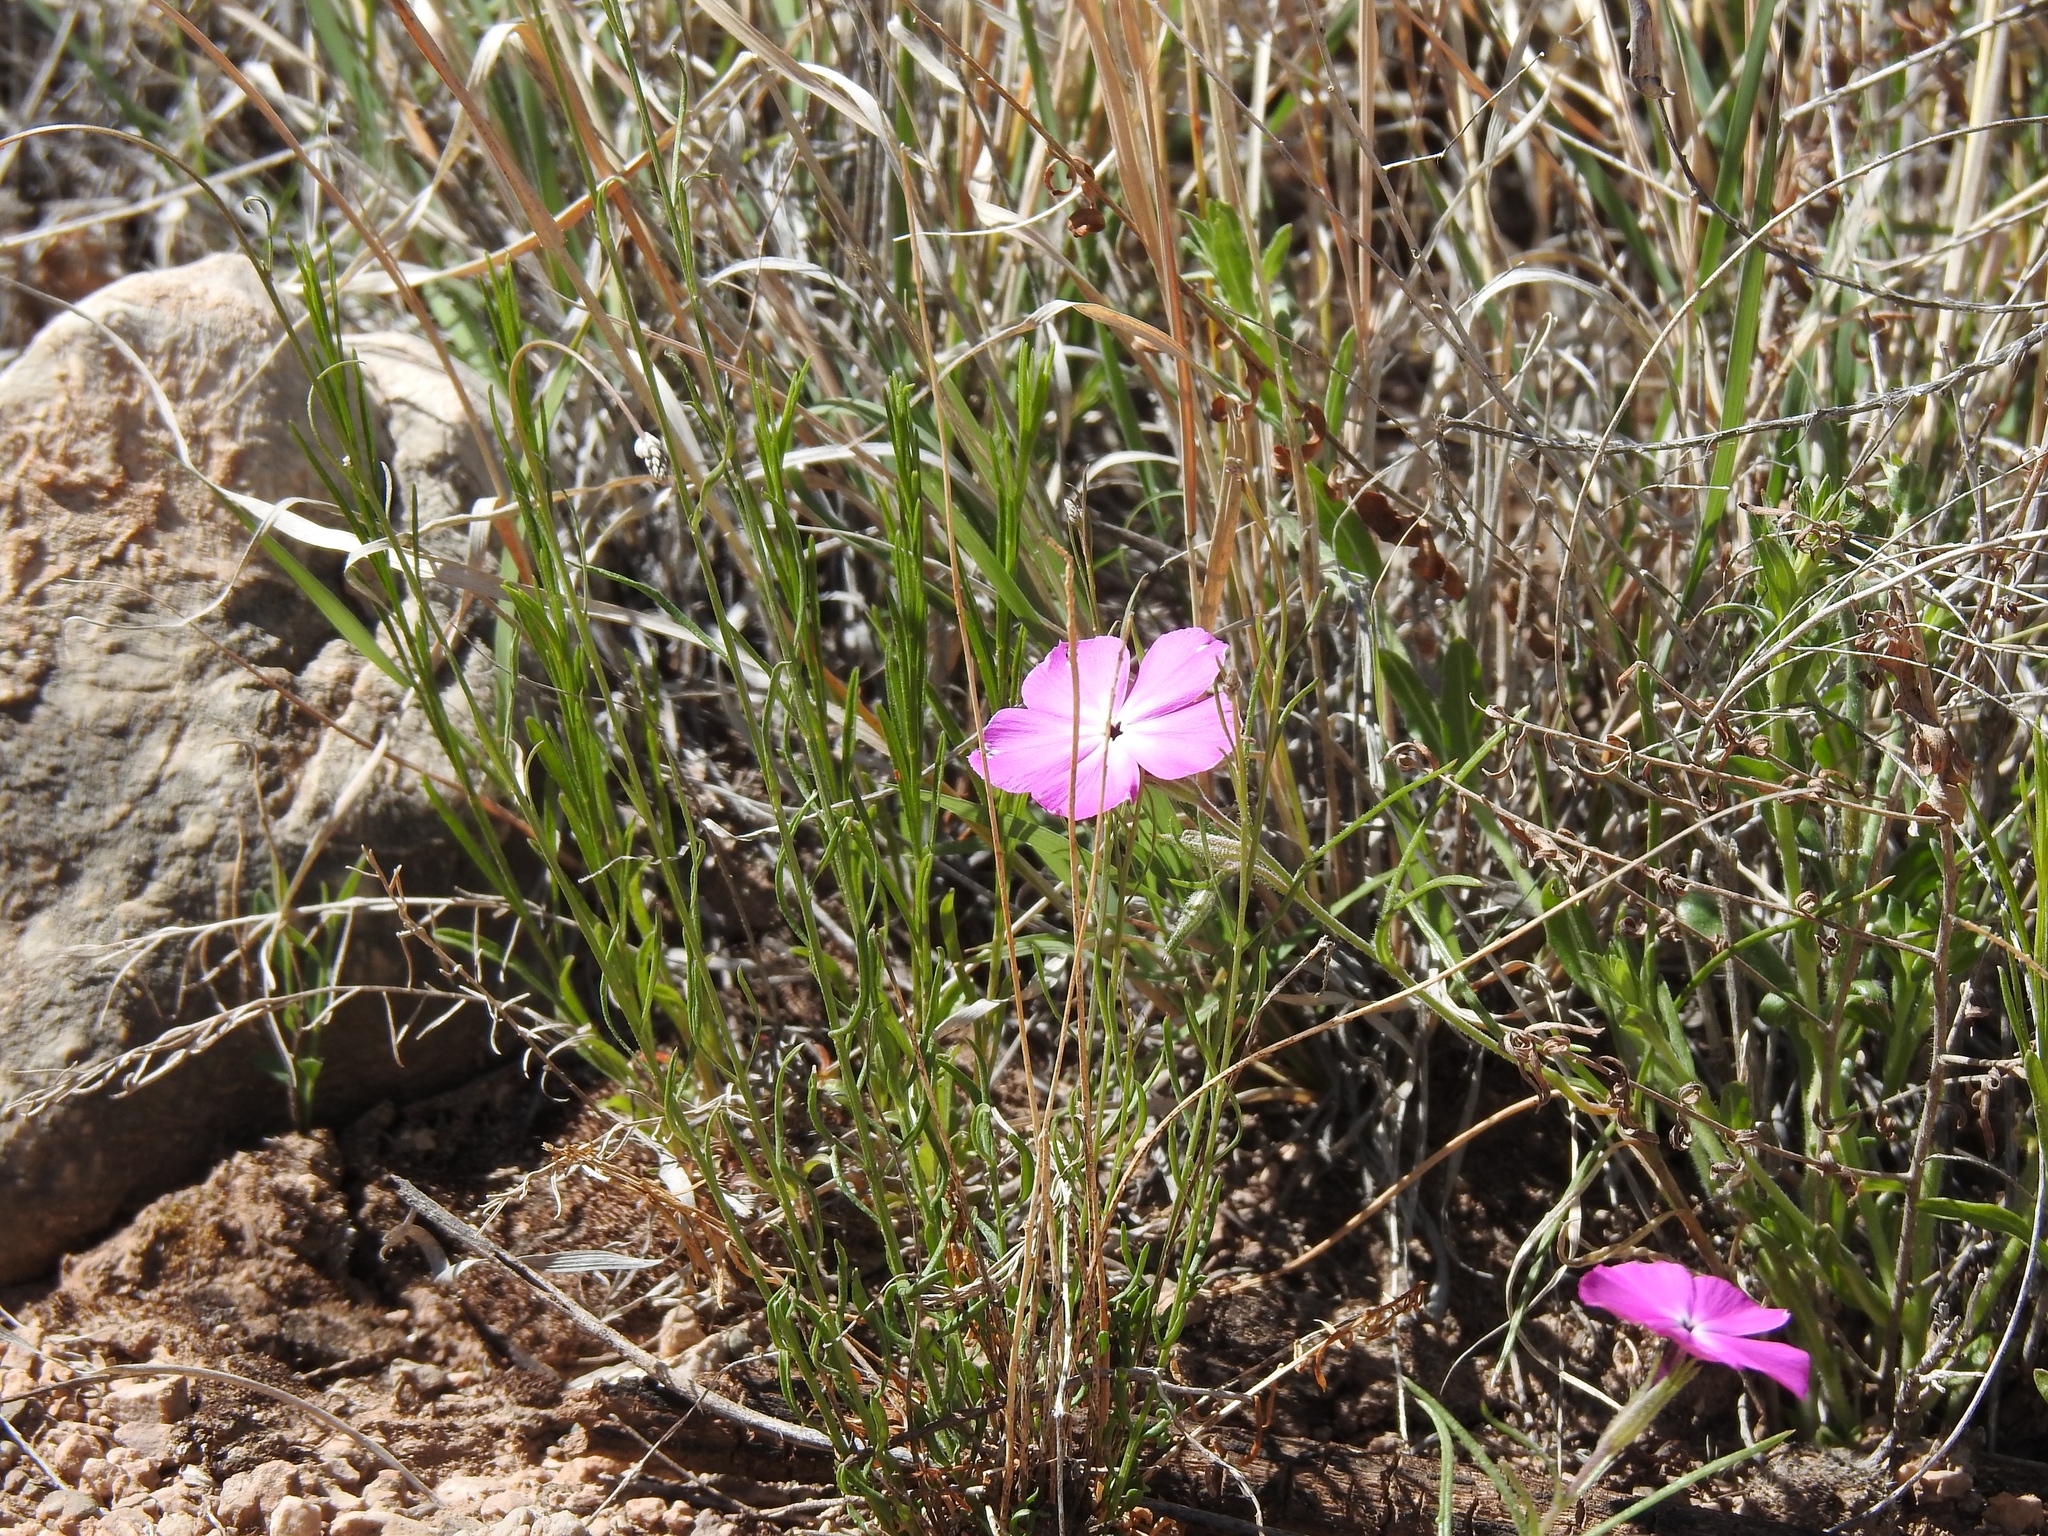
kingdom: Plantae
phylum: Tracheophyta
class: Magnoliopsida
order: Ericales
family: Polemoniaceae
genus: Phlox
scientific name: Phlox nana
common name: Santa fe phlox
